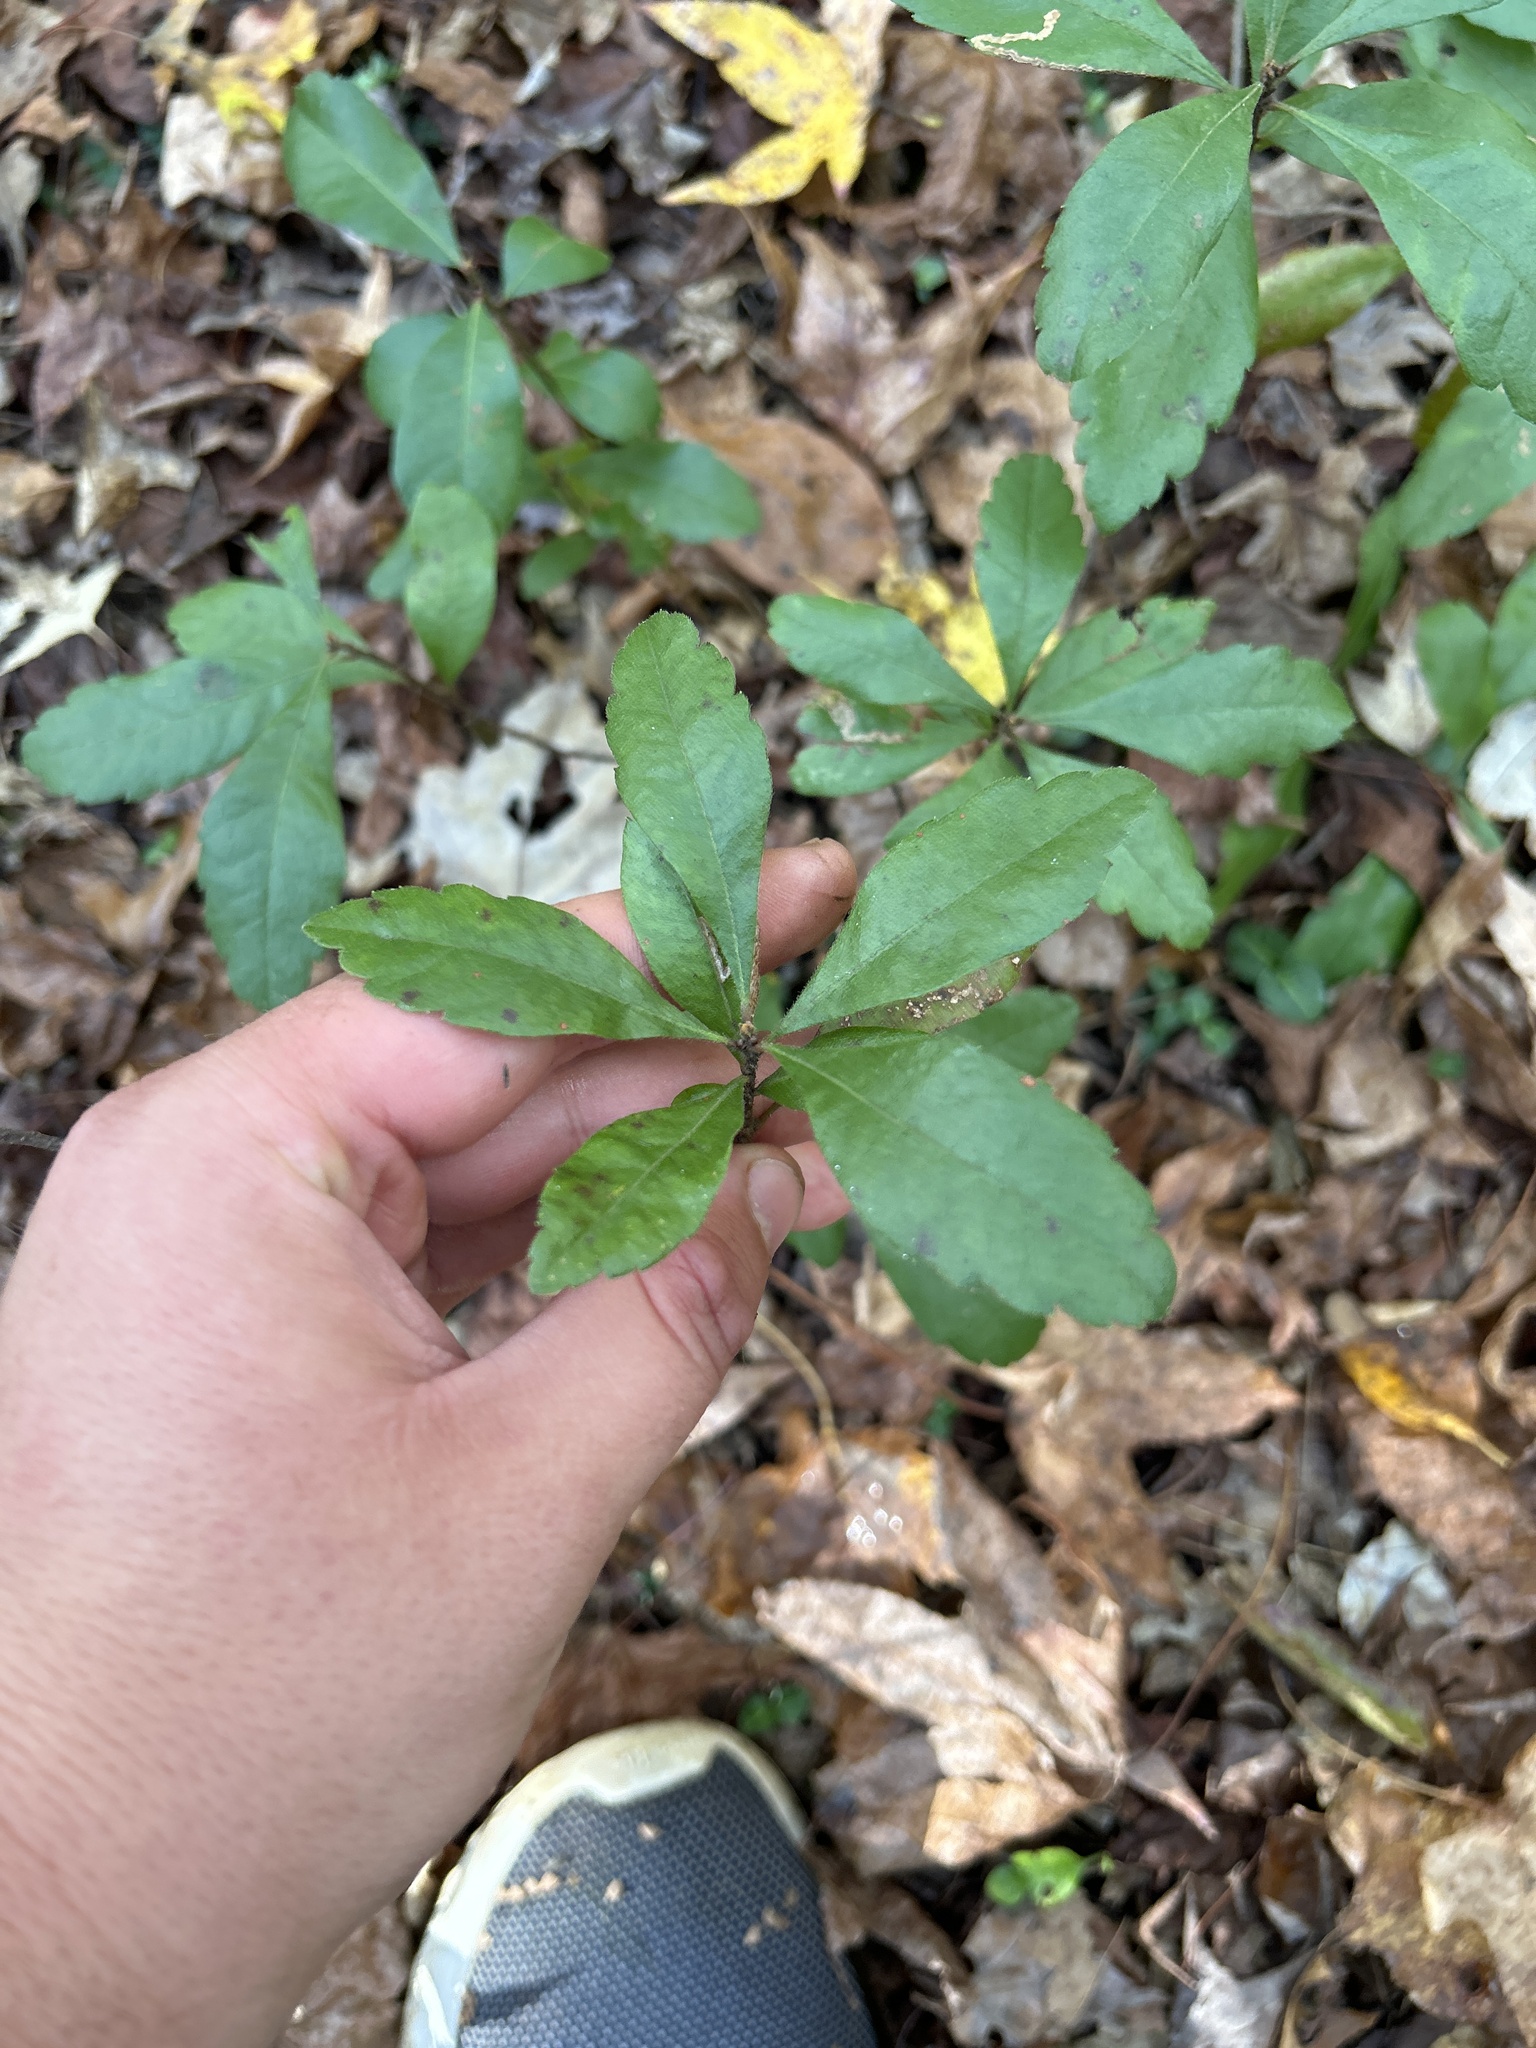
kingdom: Plantae
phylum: Tracheophyta
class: Magnoliopsida
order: Fagales
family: Myricaceae
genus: Morella
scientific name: Morella pensylvanica
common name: Northern bayberry
